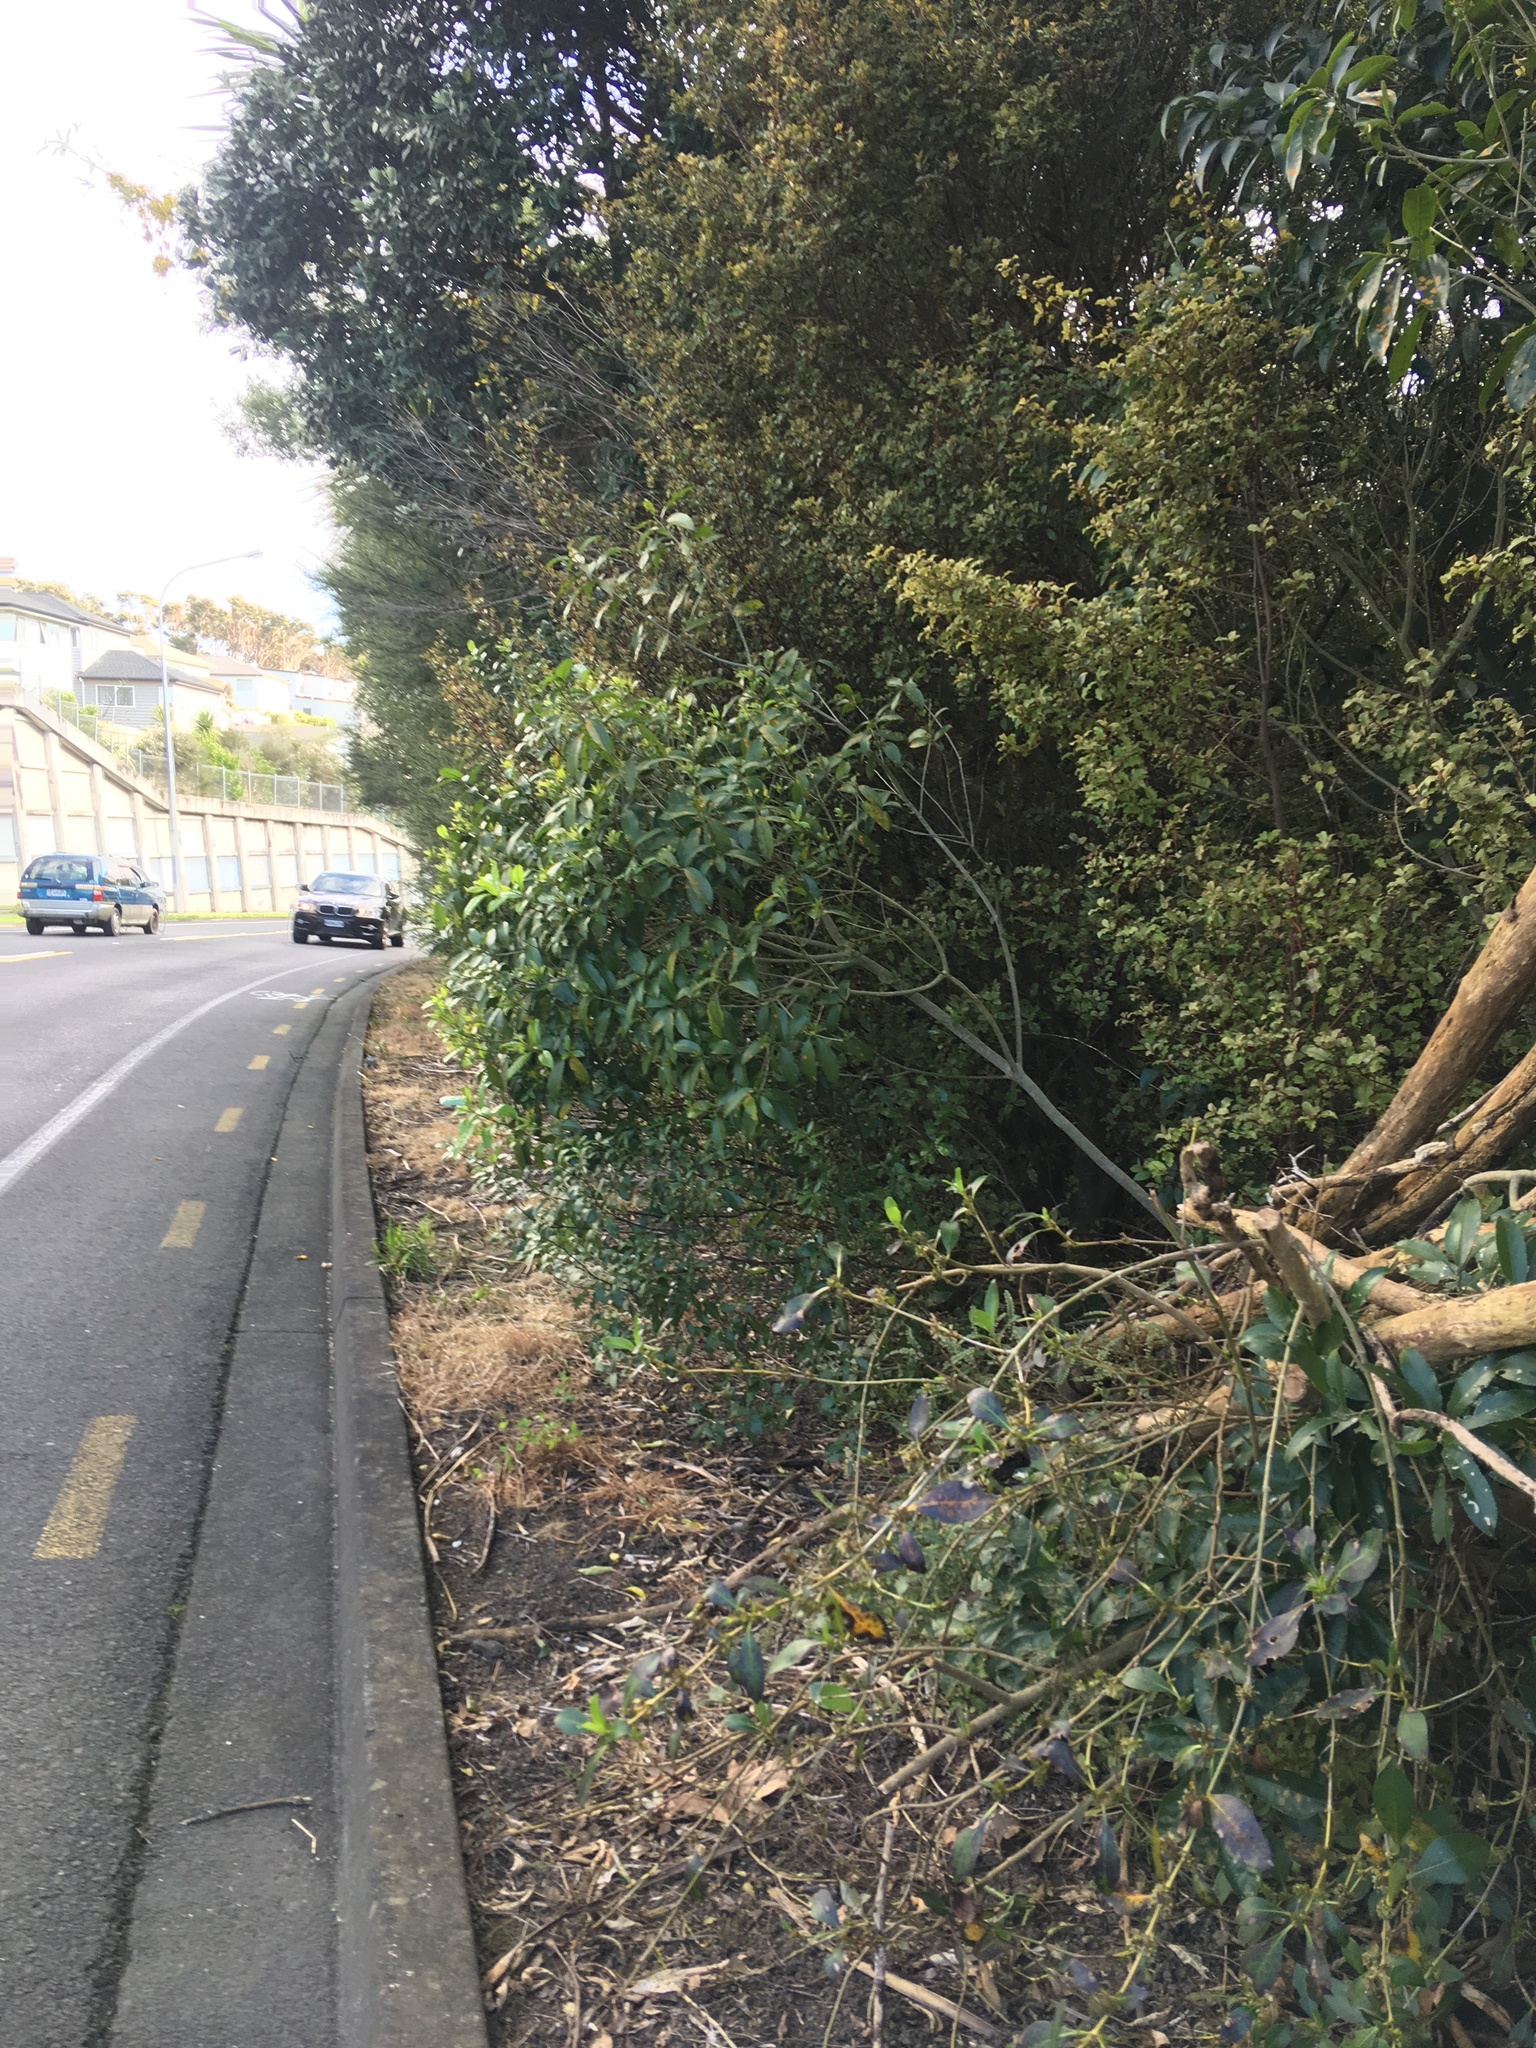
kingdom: Plantae
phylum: Tracheophyta
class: Magnoliopsida
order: Ericales
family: Primulaceae
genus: Myrsine
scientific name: Myrsine australis
